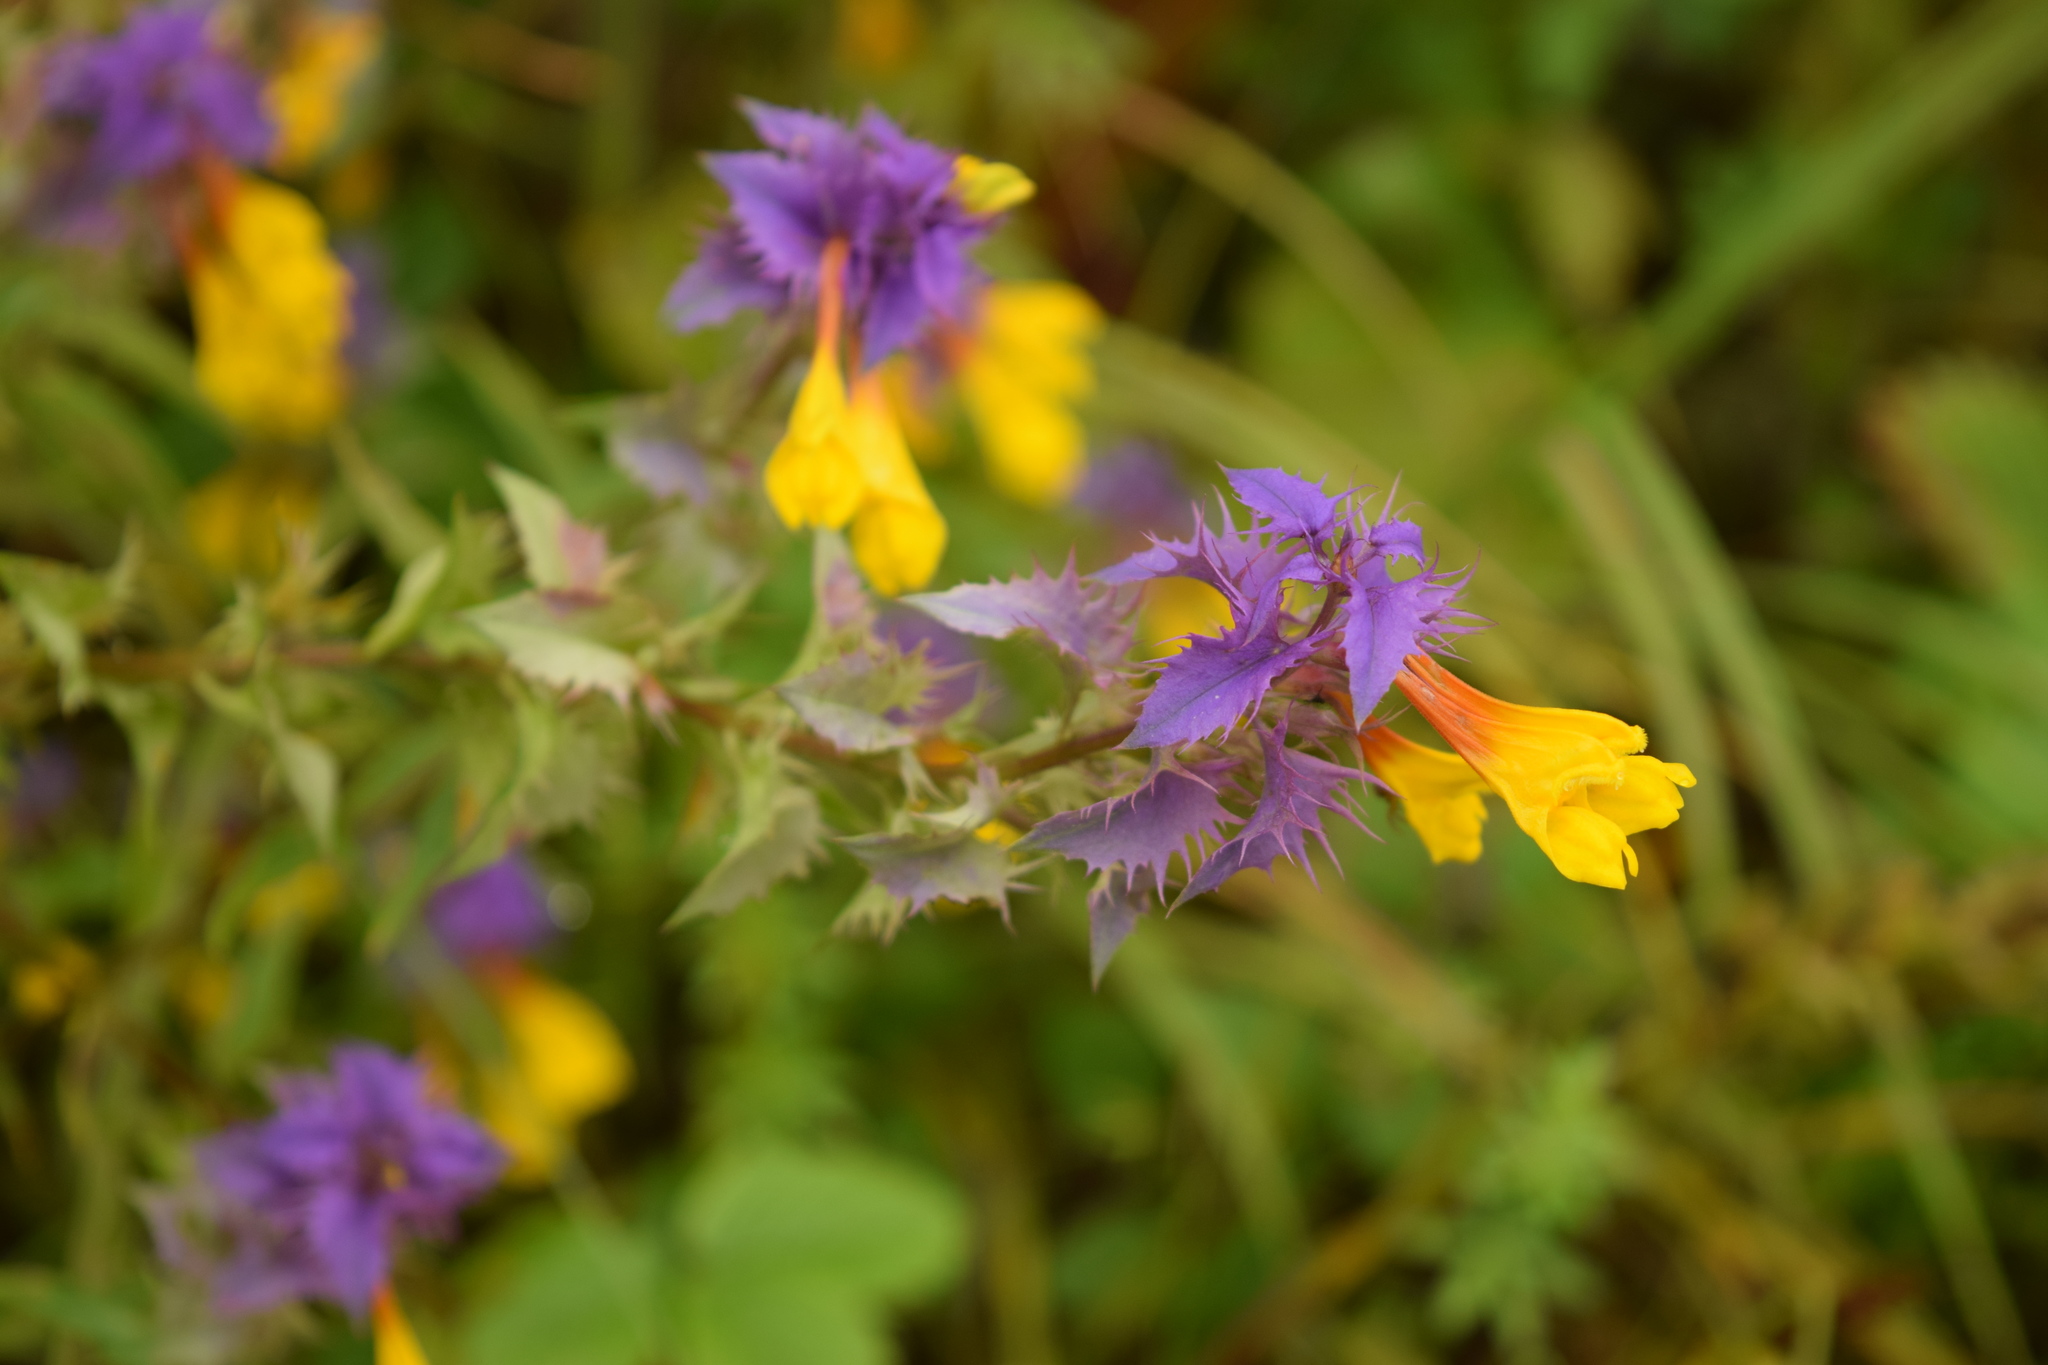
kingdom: Plantae
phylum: Tracheophyta
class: Magnoliopsida
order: Lamiales
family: Orobanchaceae
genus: Melampyrum
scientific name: Melampyrum nemorosum
